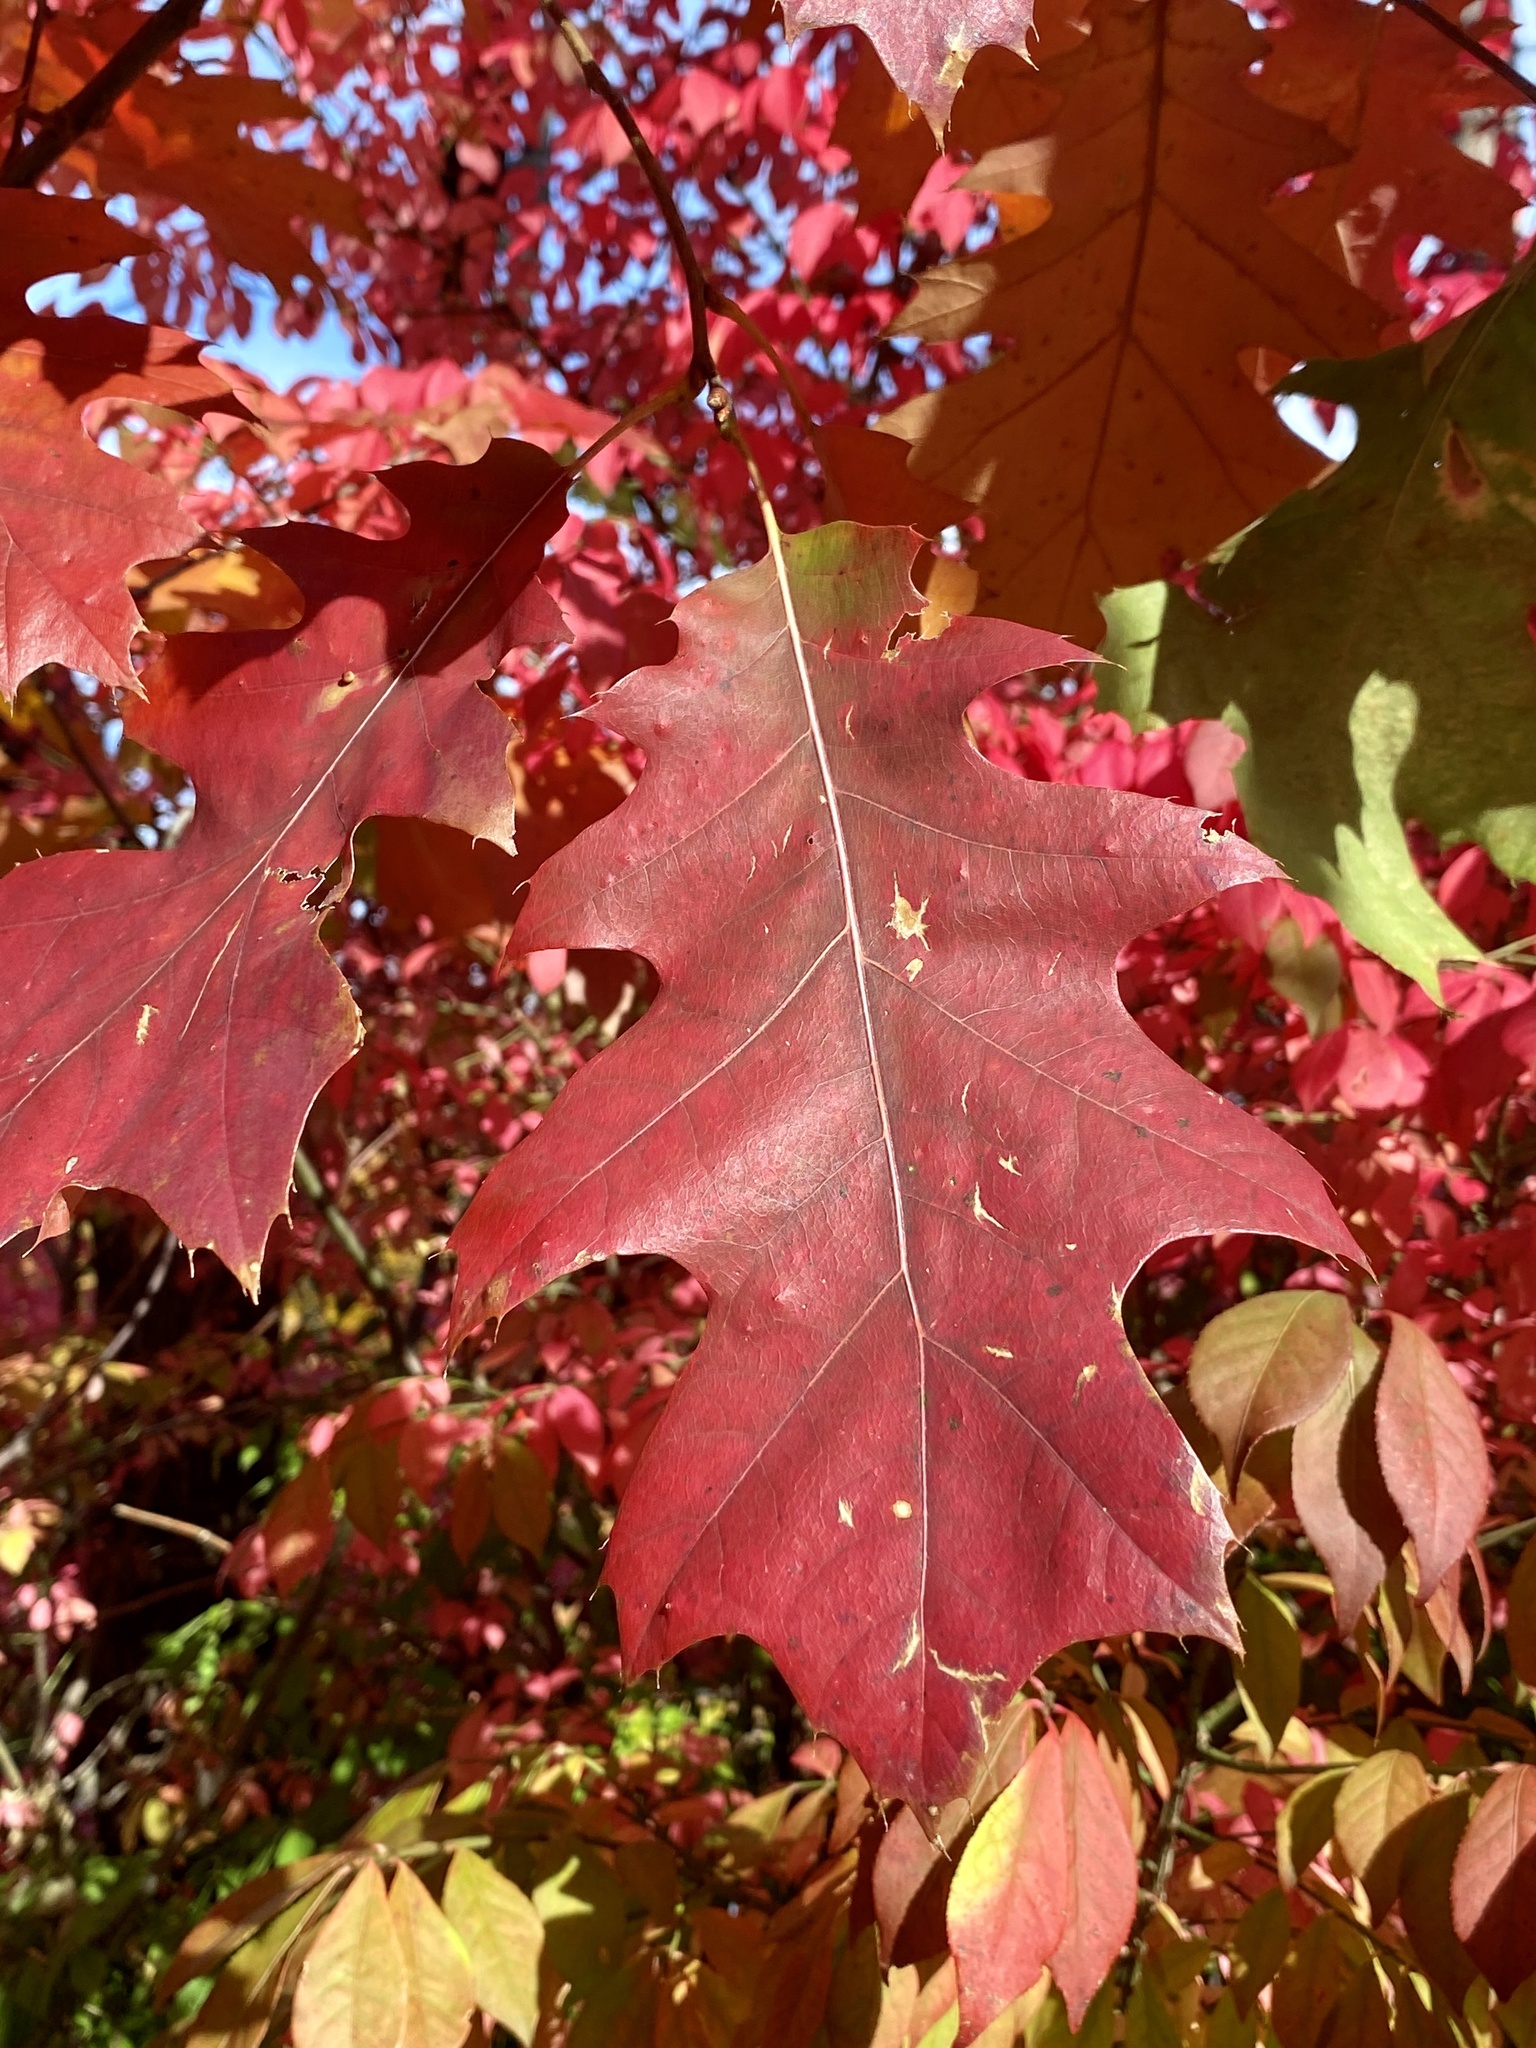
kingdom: Plantae
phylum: Tracheophyta
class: Magnoliopsida
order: Fagales
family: Fagaceae
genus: Quercus
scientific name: Quercus rubra
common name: Red oak
